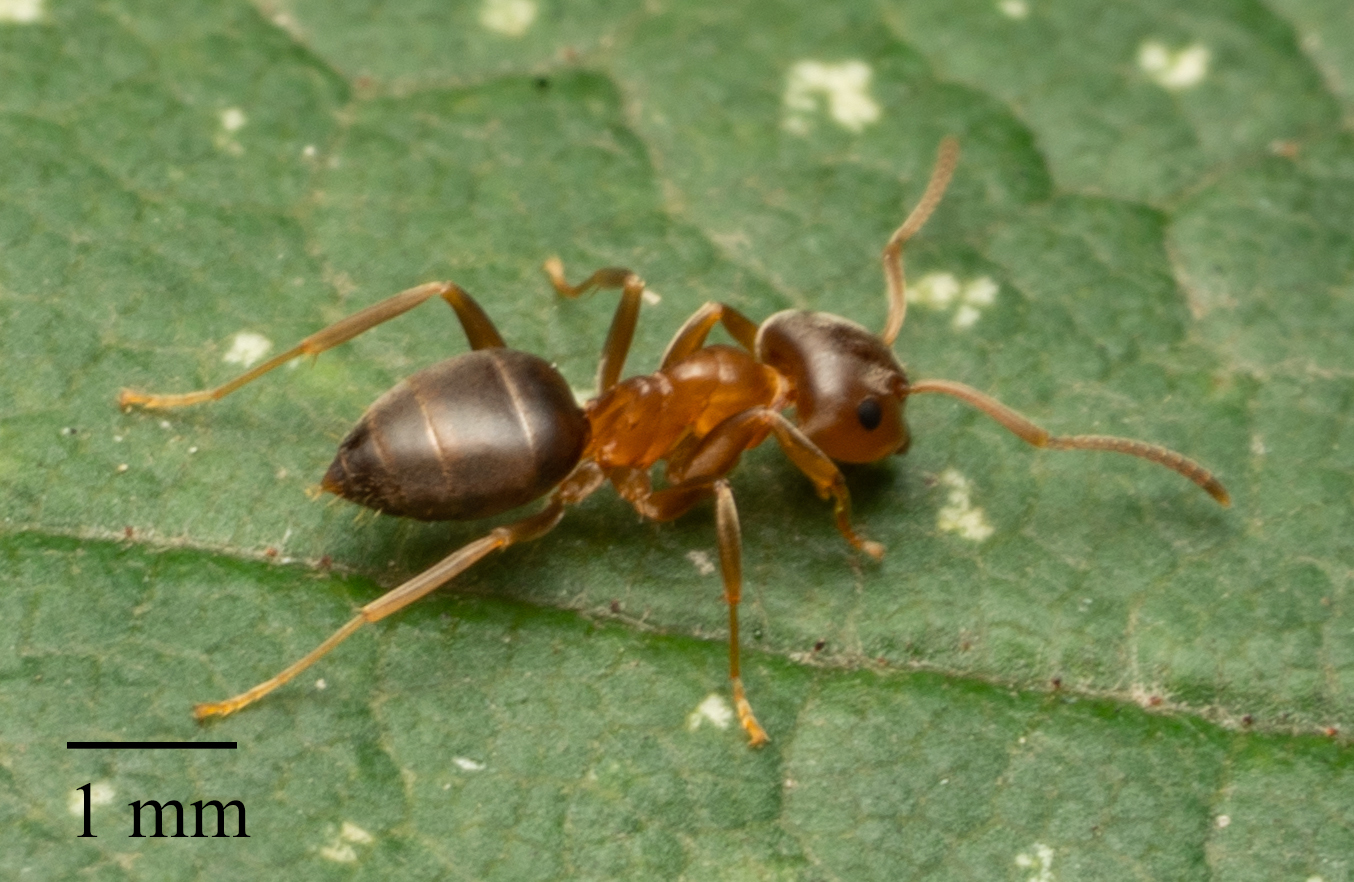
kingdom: Animalia
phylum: Arthropoda
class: Insecta
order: Hymenoptera
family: Formicidae
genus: Lasius
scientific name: Lasius brunneus
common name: Brown ant
